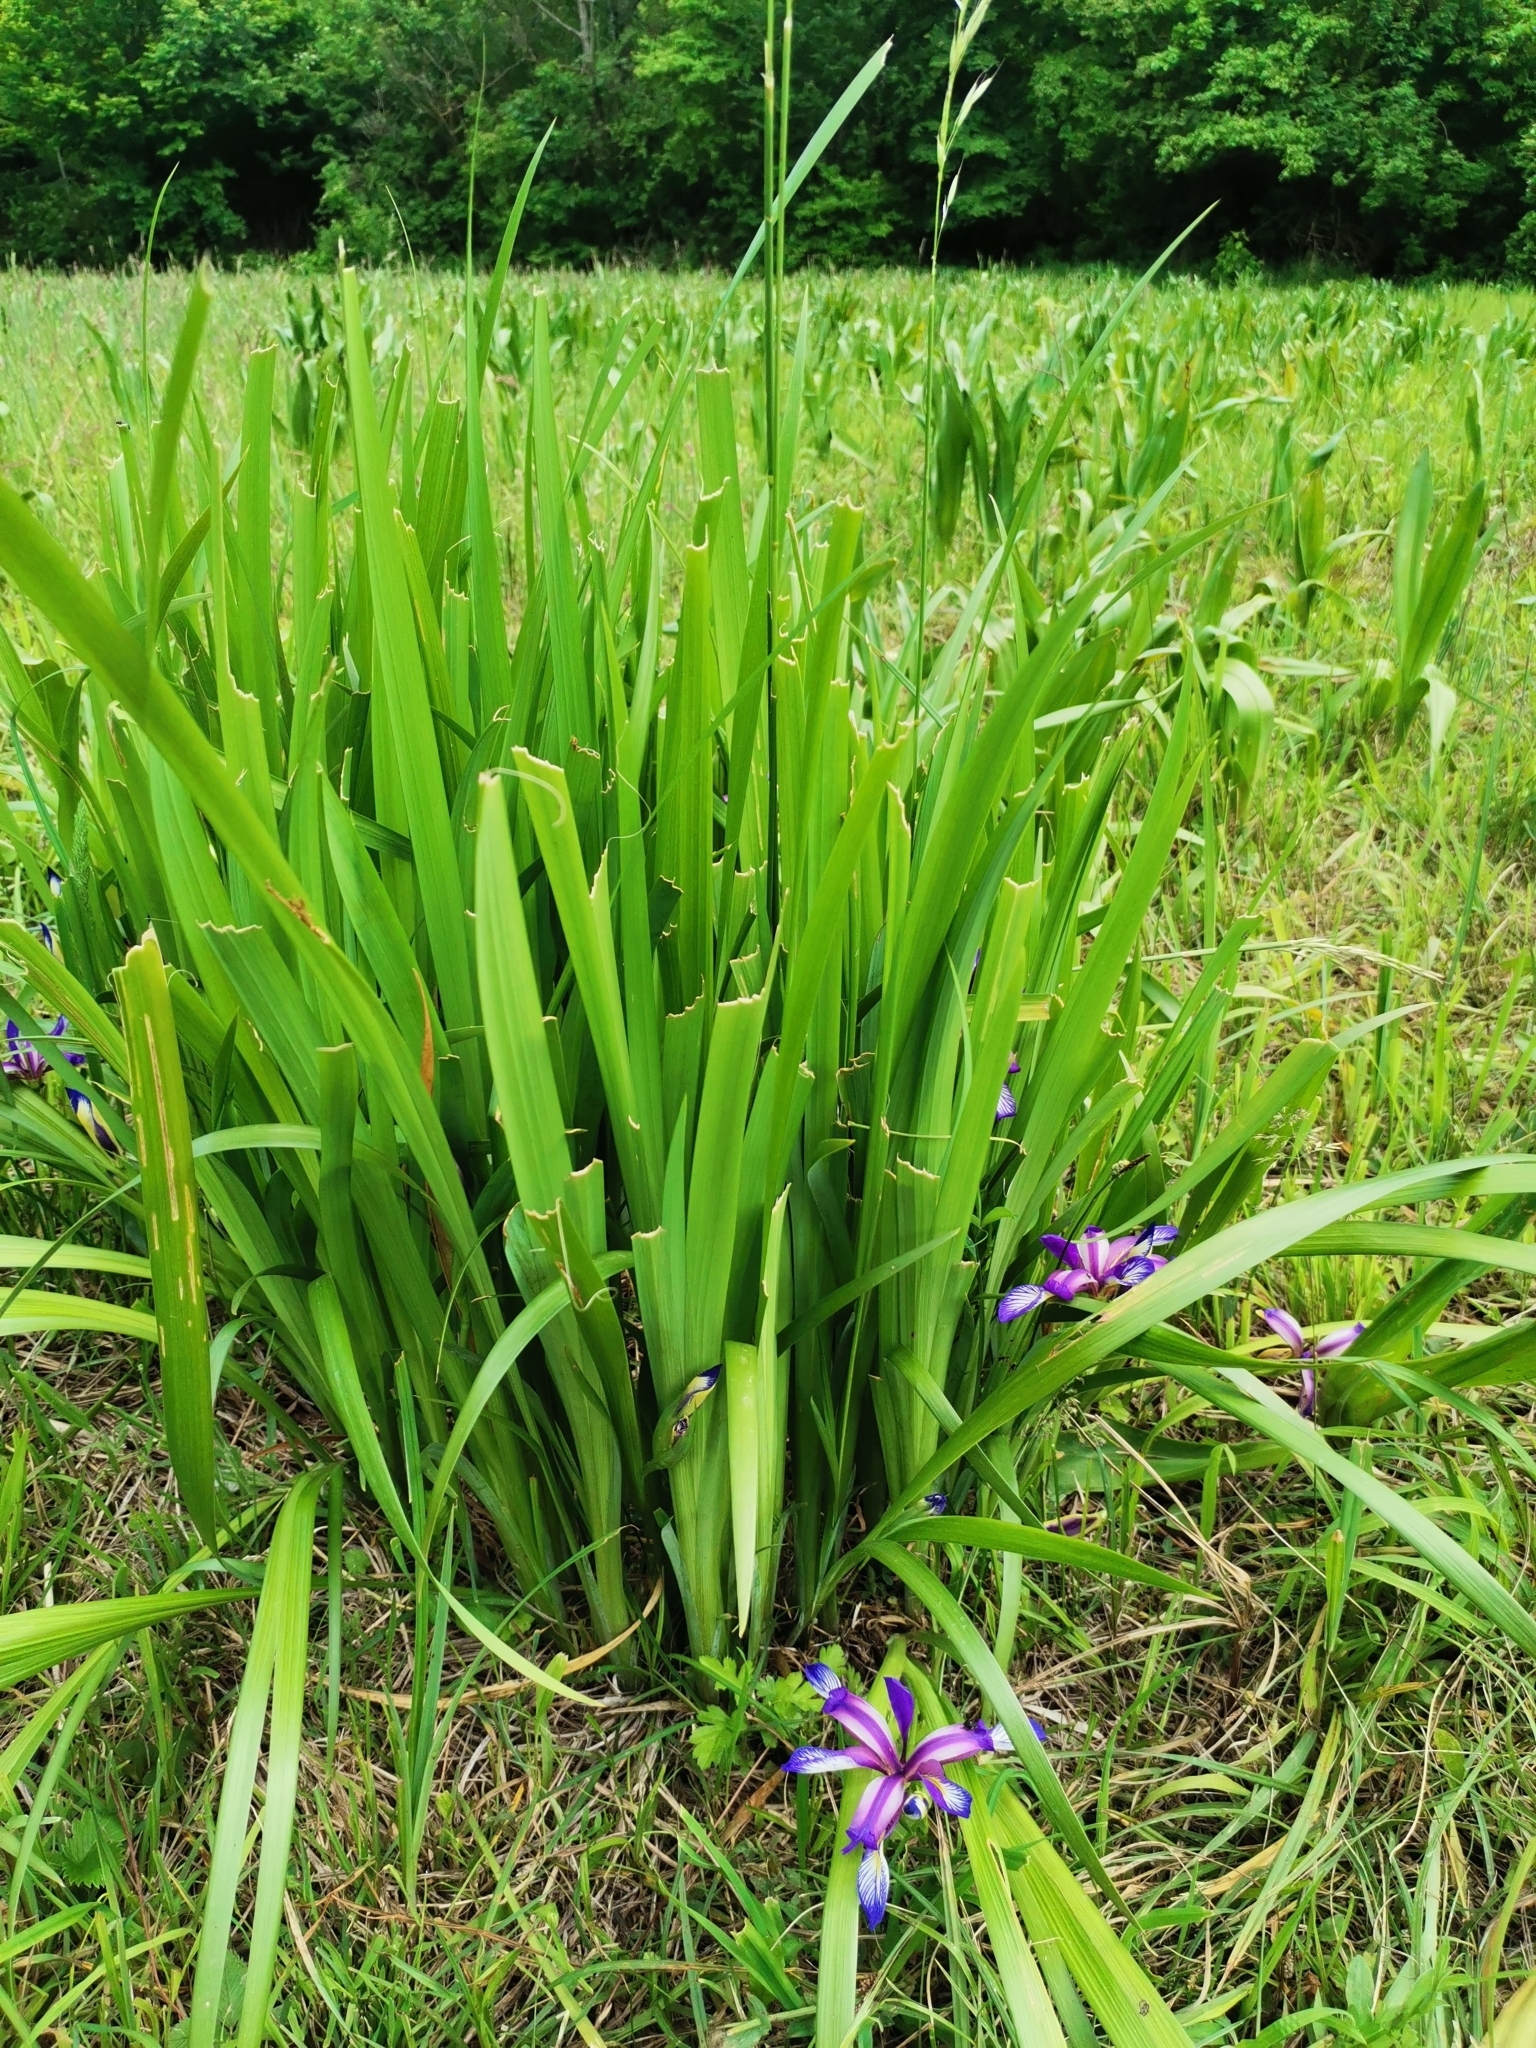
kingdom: Plantae
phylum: Tracheophyta
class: Liliopsida
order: Asparagales
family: Iridaceae
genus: Iris
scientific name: Iris graminea
